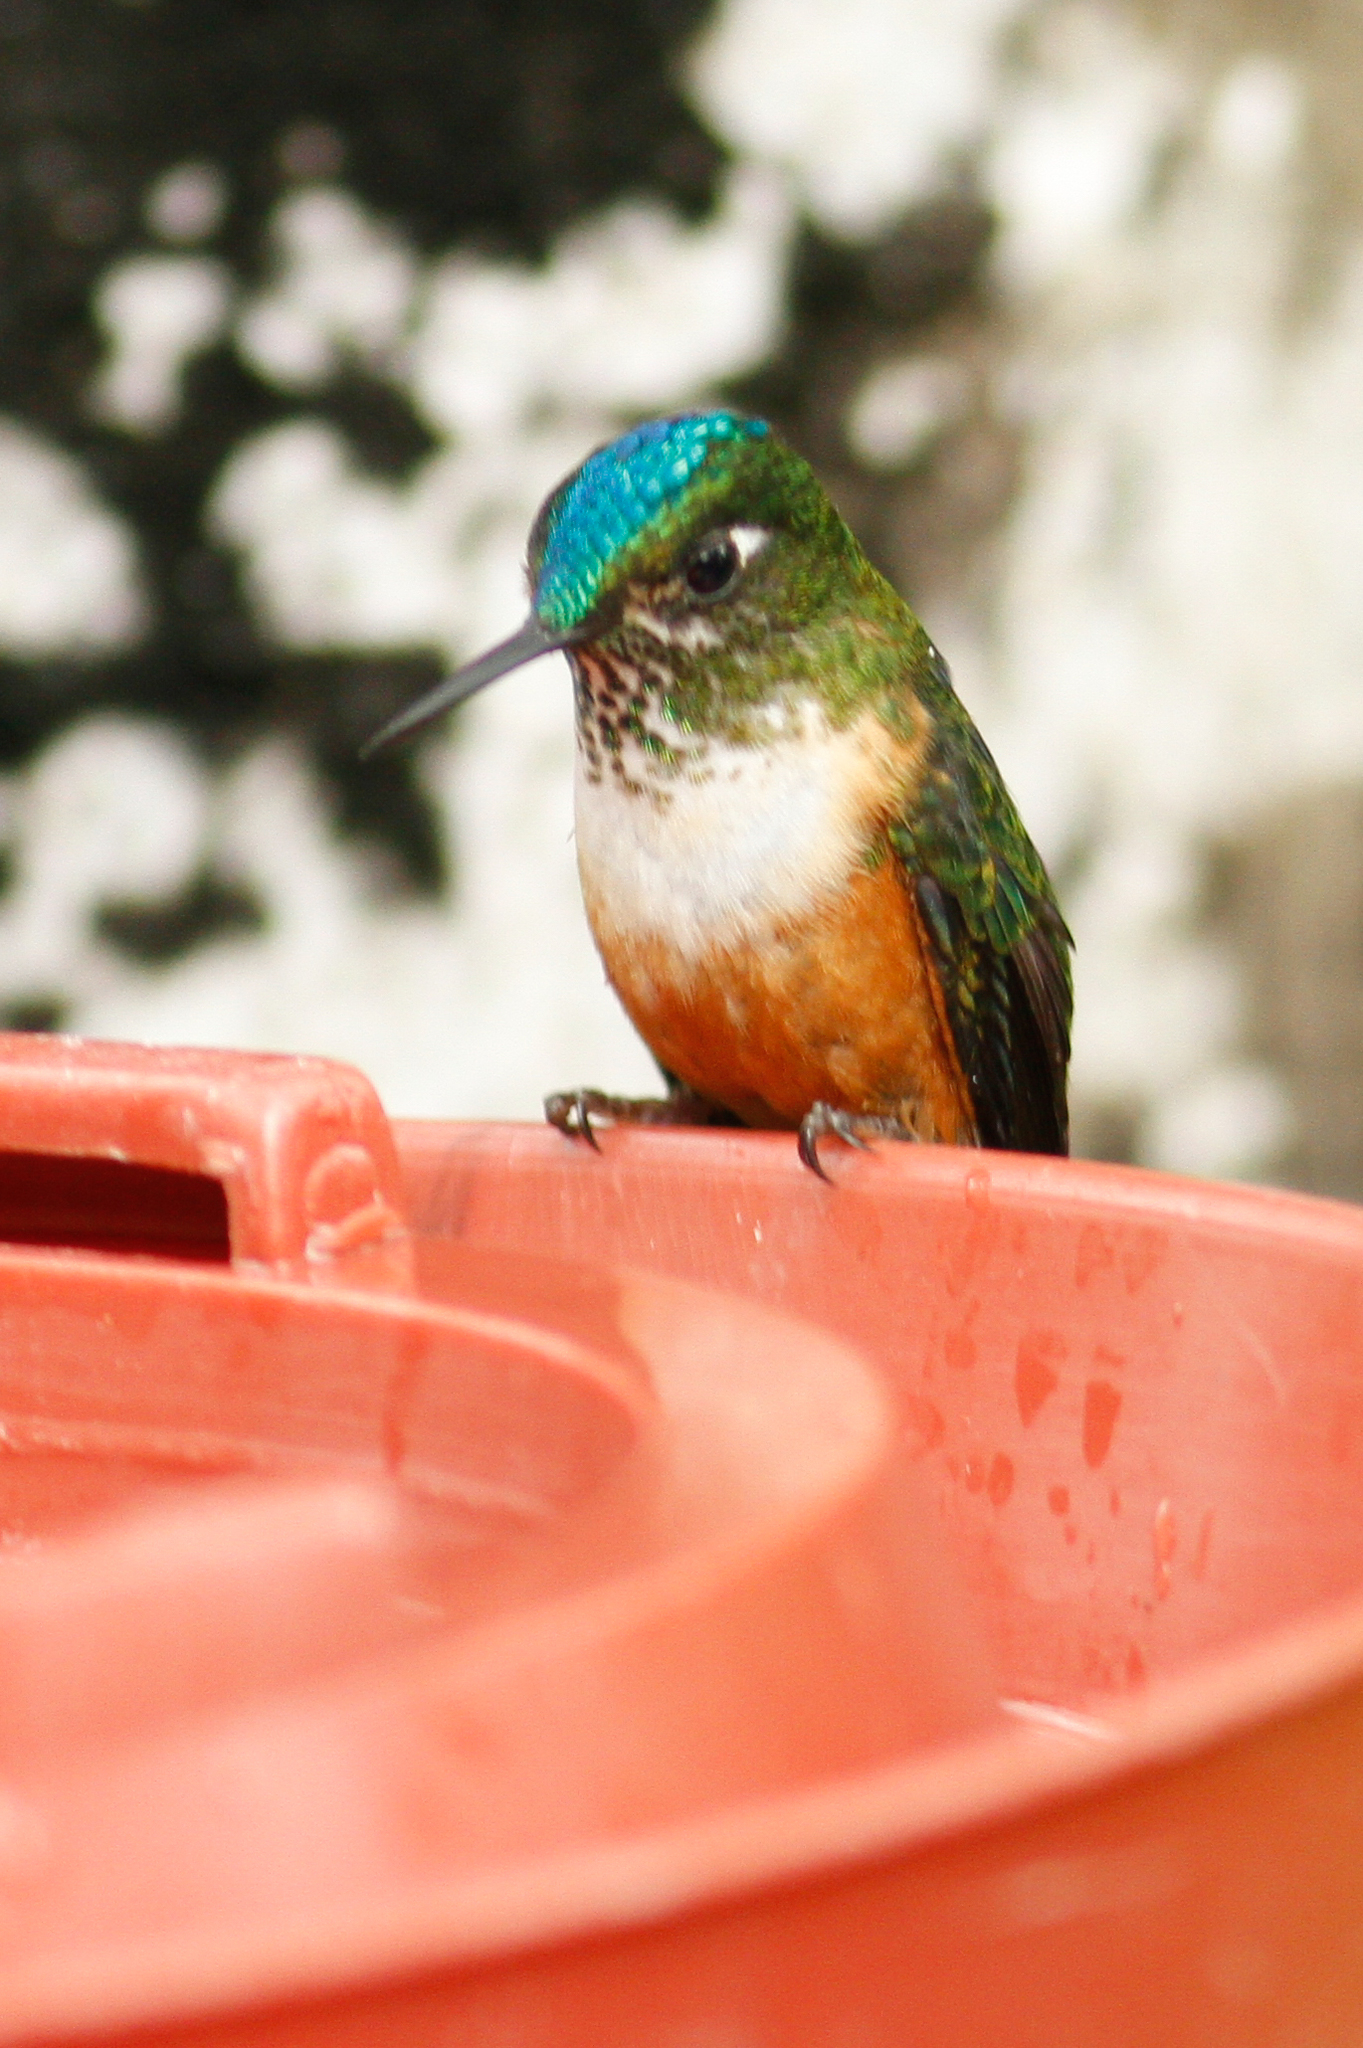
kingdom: Animalia
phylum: Chordata
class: Aves
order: Apodiformes
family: Trochilidae
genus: Aglaiocercus
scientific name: Aglaiocercus coelestis
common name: Violet-tailed sylph
